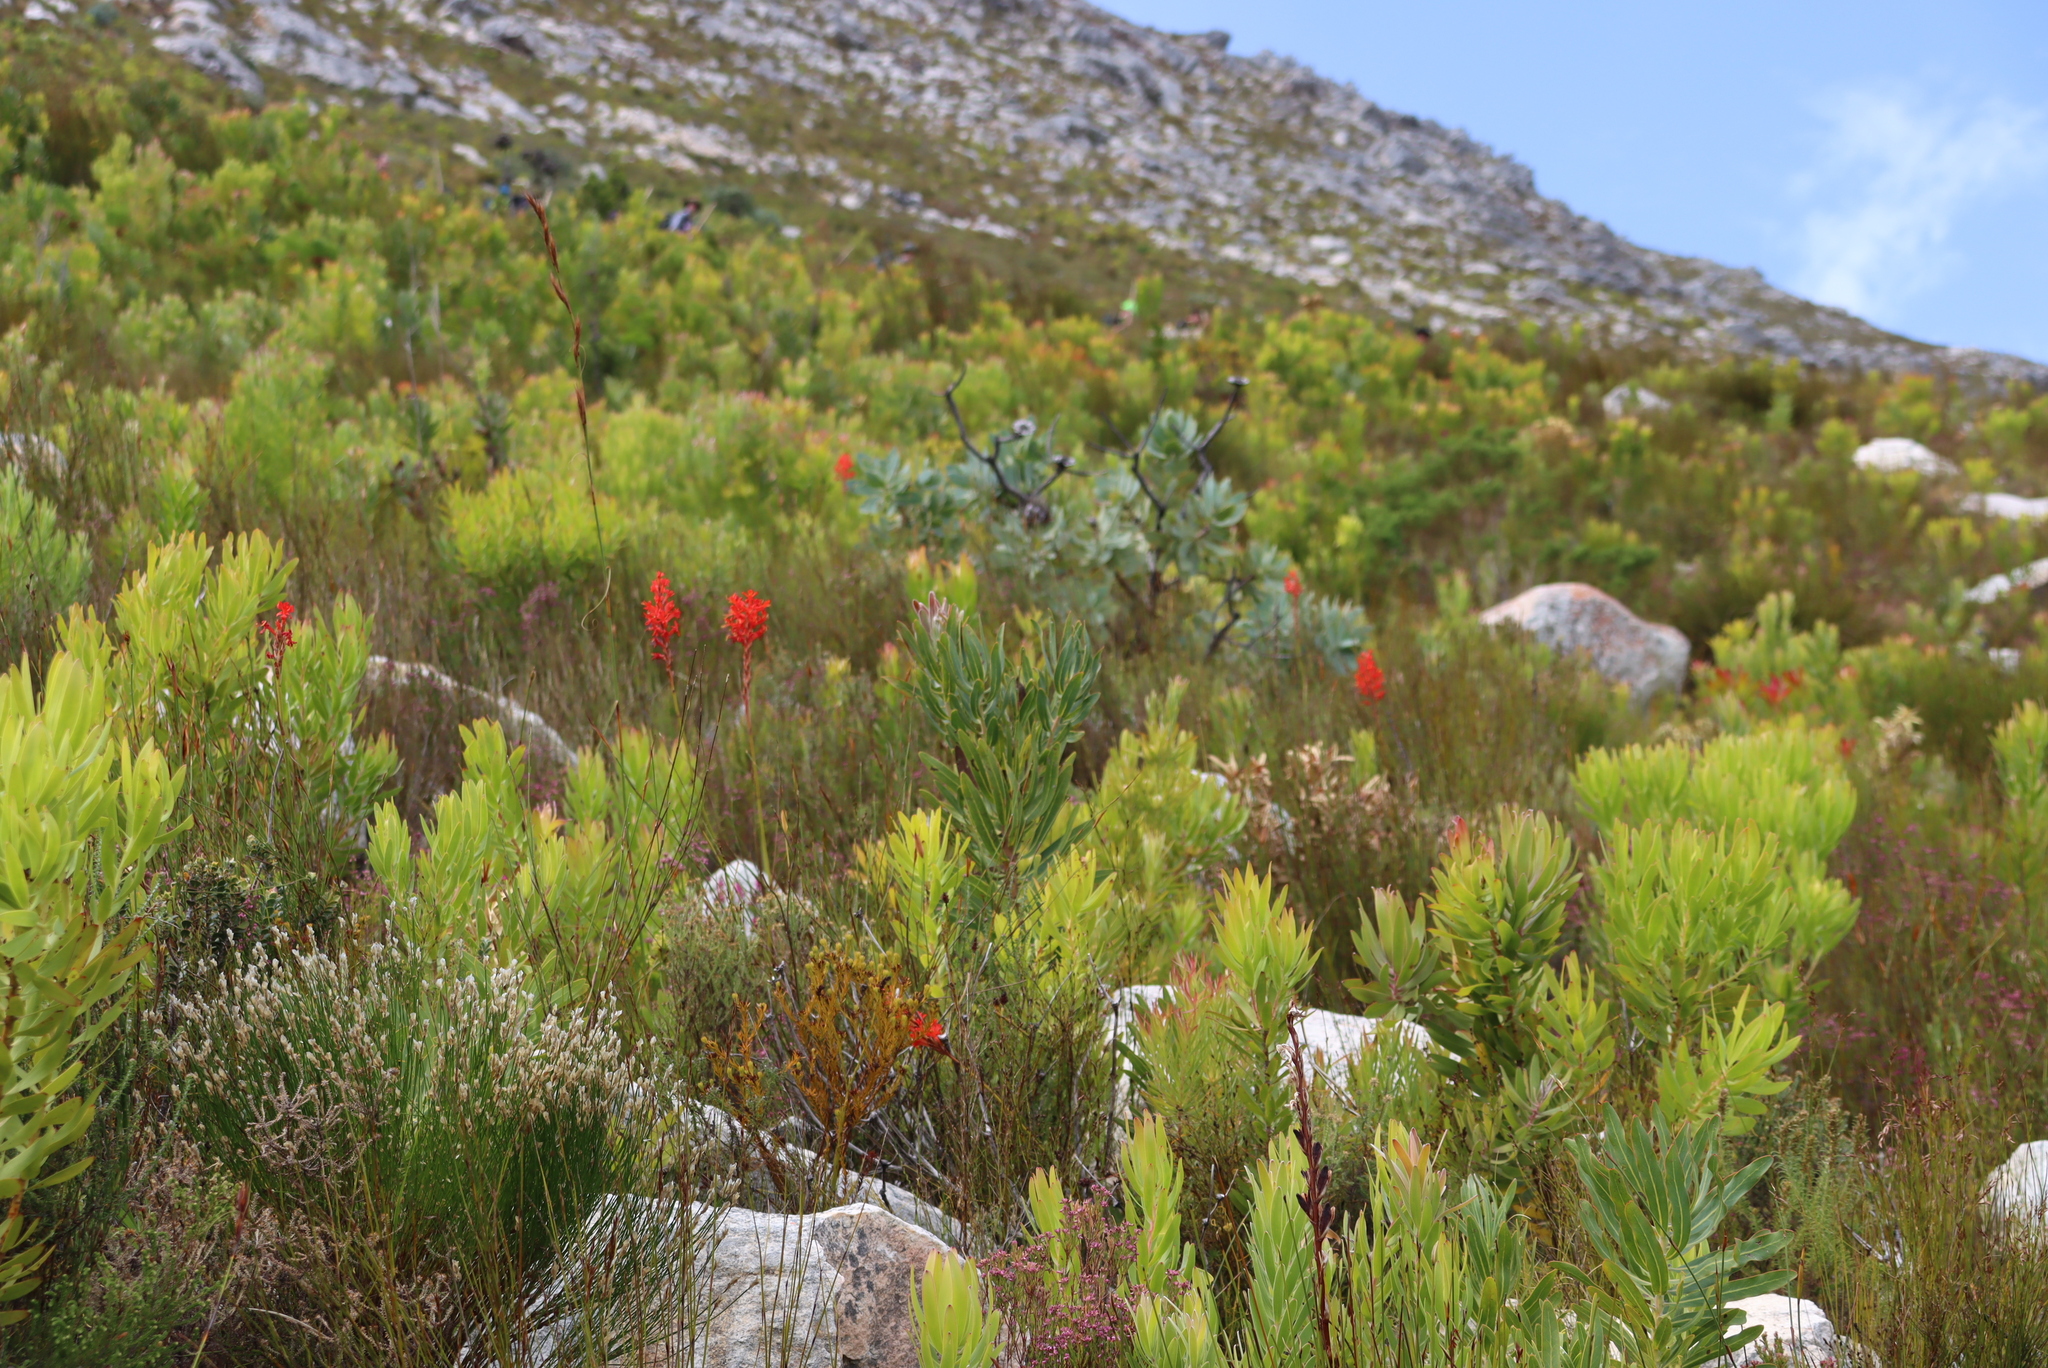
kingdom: Plantae
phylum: Tracheophyta
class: Magnoliopsida
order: Proteales
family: Proteaceae
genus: Protea
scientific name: Protea nitida
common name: Tree protea
